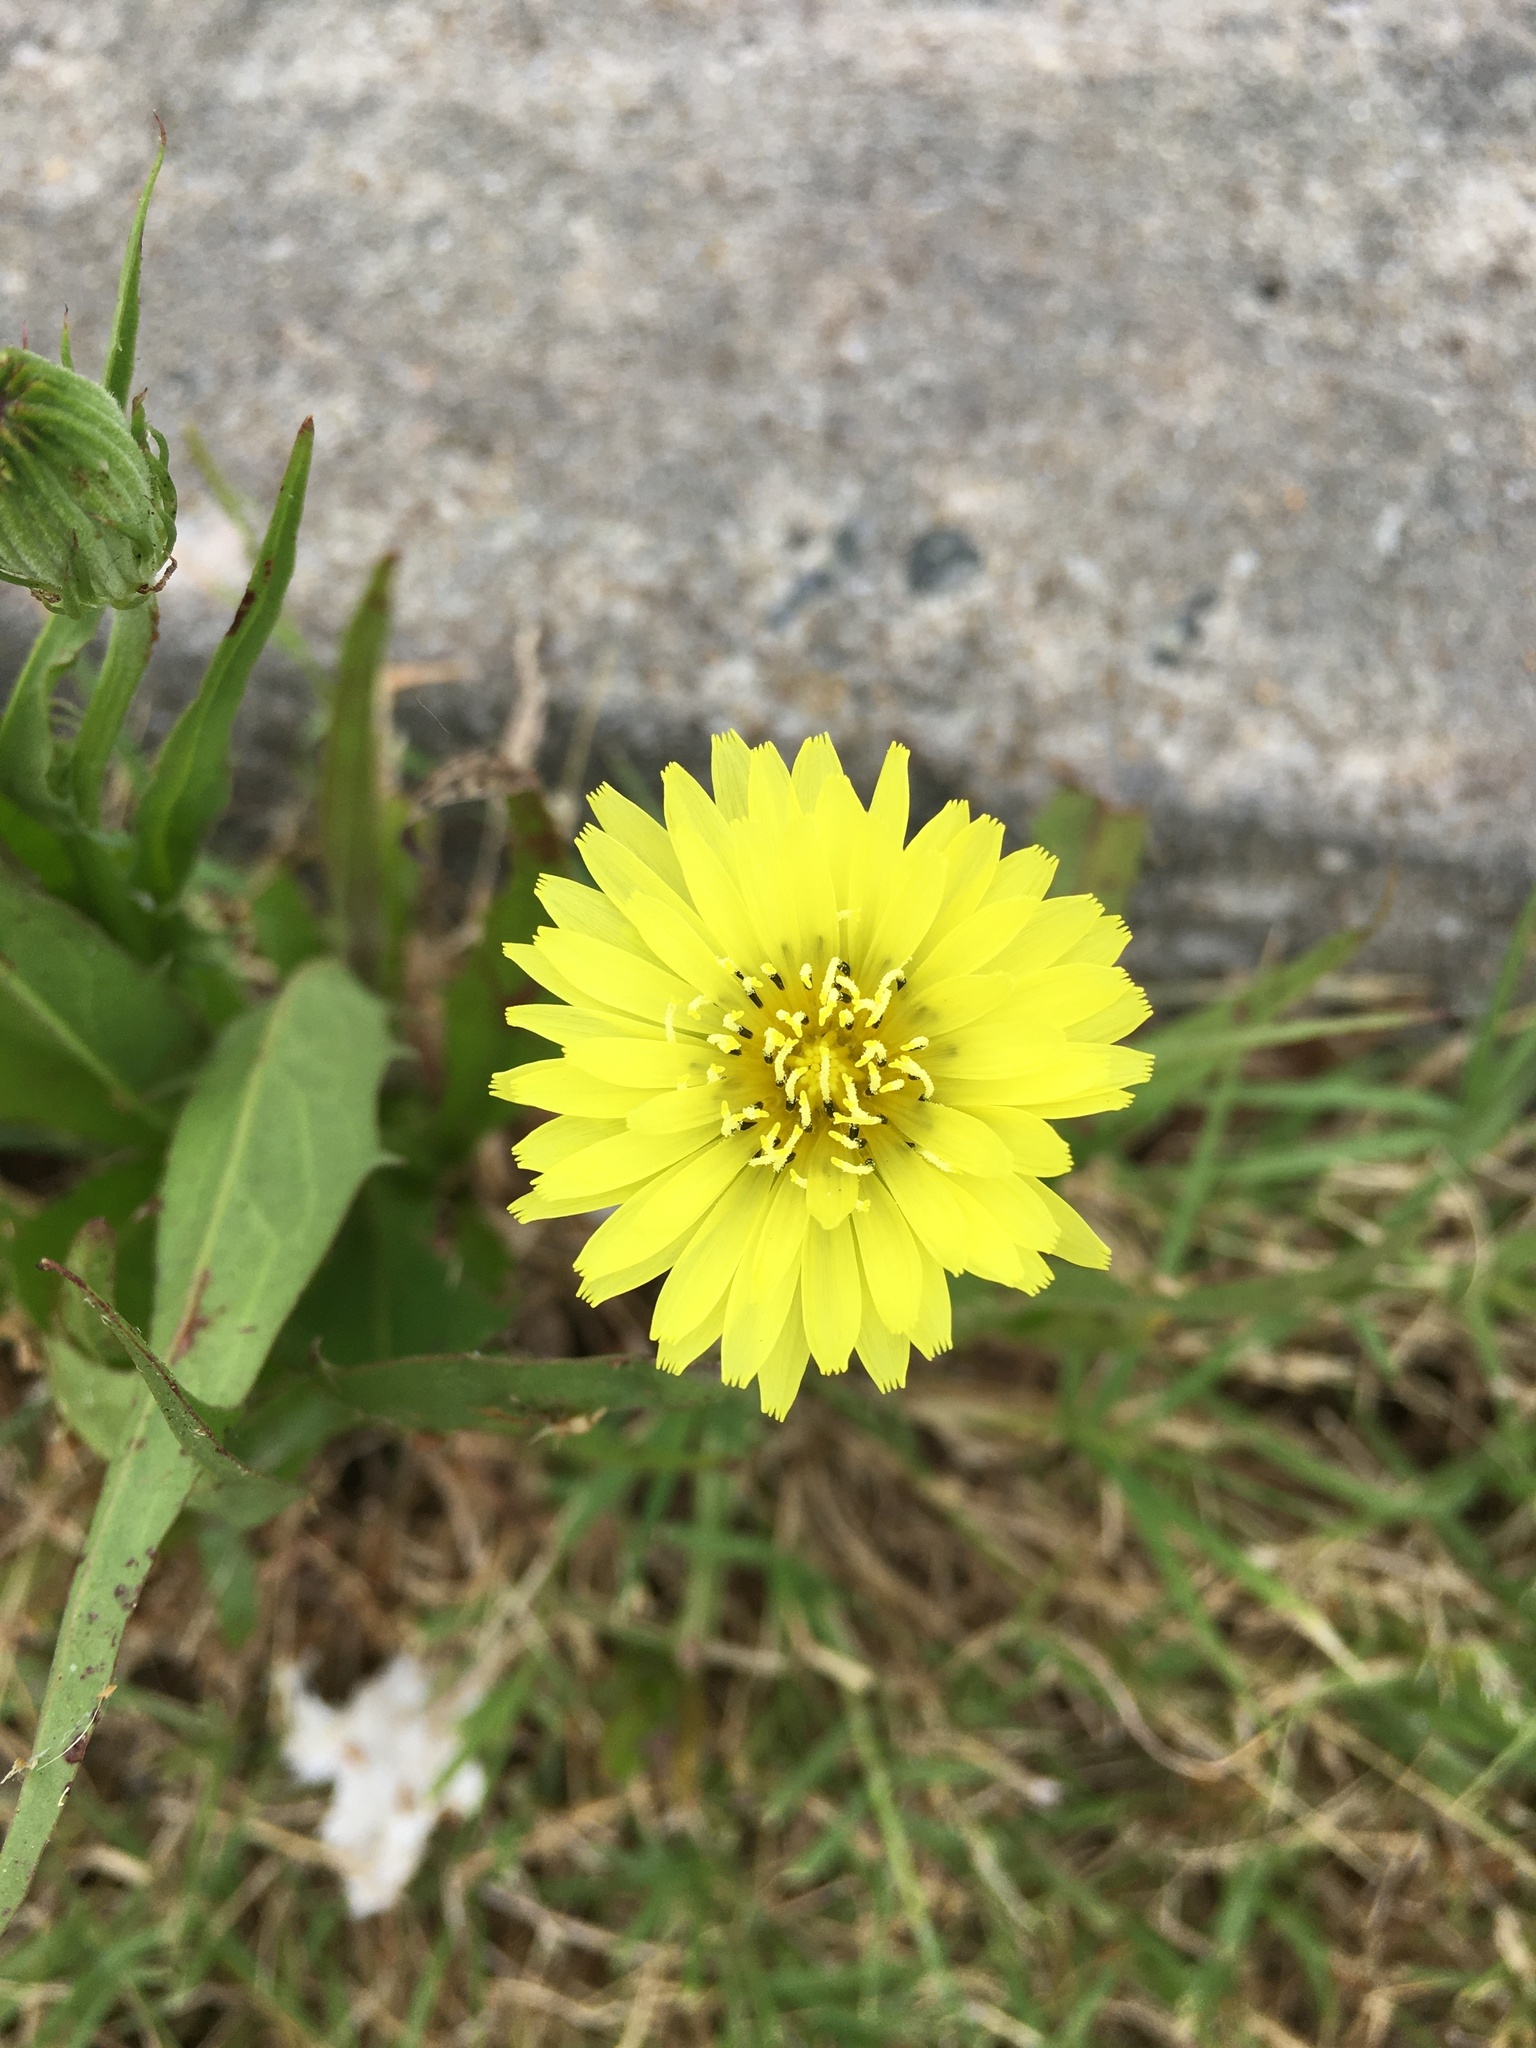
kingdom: Plantae
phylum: Tracheophyta
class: Magnoliopsida
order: Asterales
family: Asteraceae
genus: Pyrrhopappus
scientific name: Pyrrhopappus carolinianus
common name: Carolina desert-chicory
